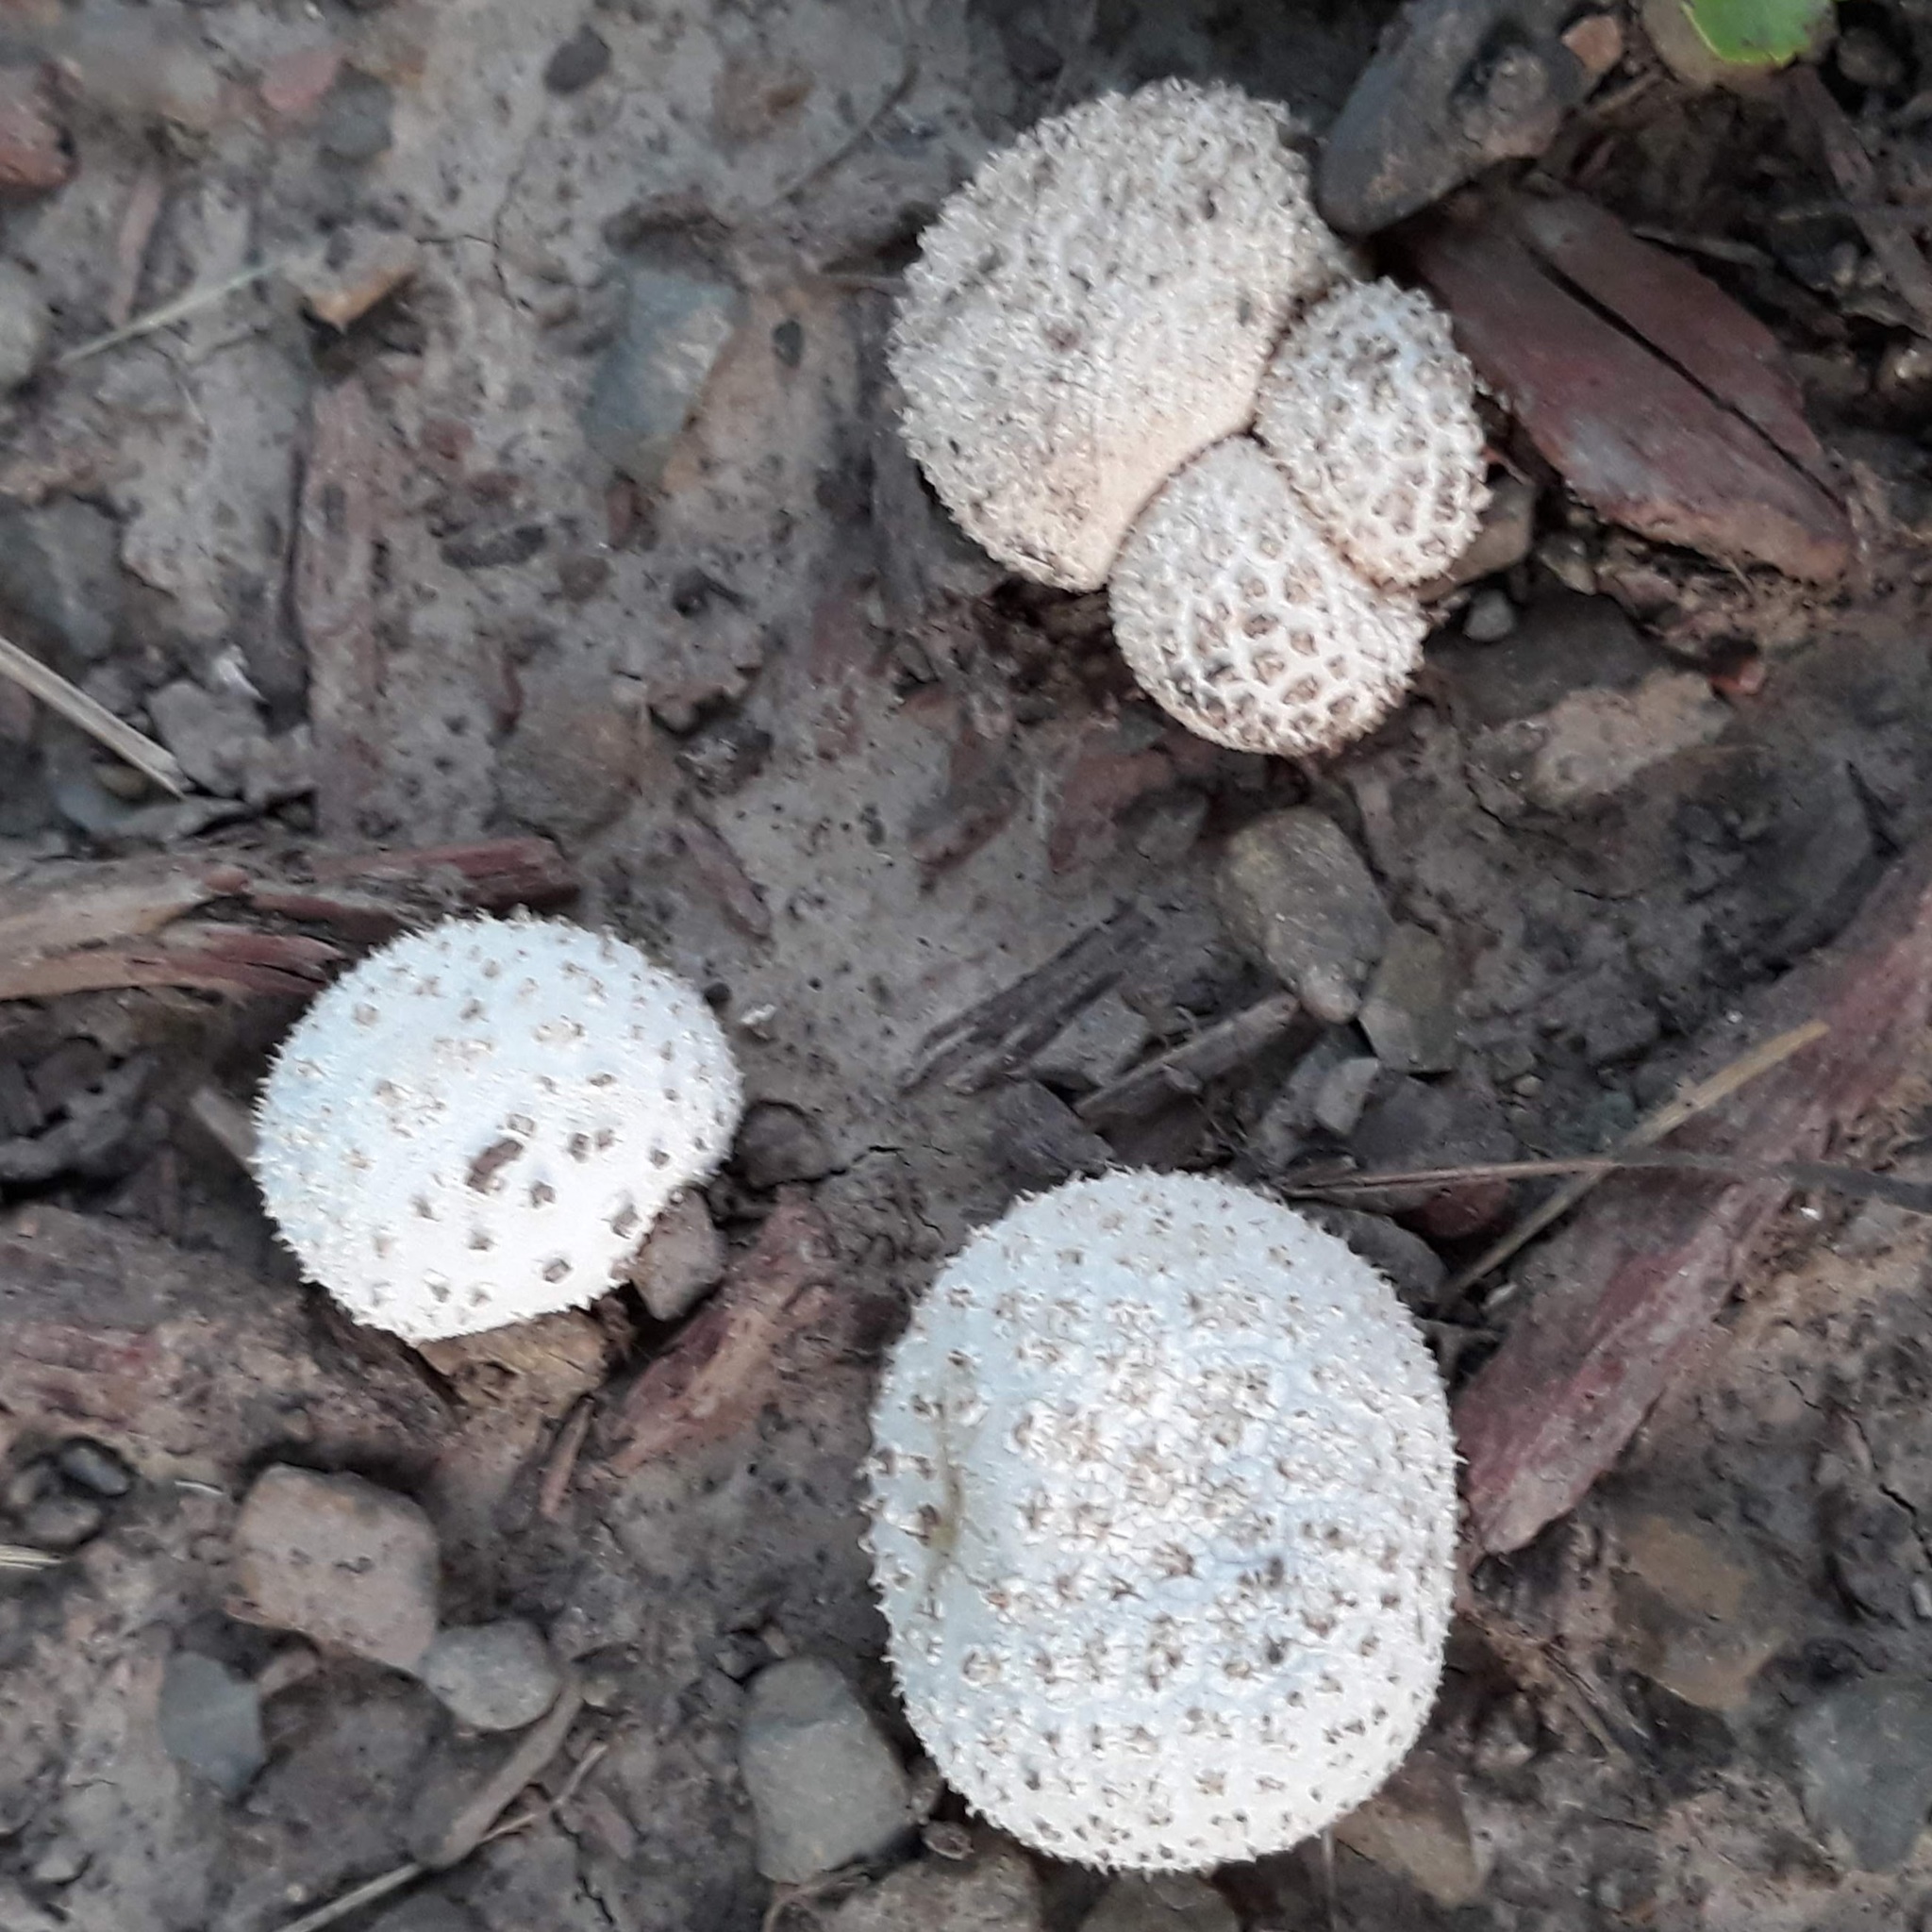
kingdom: Fungi
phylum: Basidiomycota
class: Agaricomycetes
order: Agaricales
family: Agaricaceae
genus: Lycoperdon
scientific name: Lycoperdon marginatum
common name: Peeling puffball
